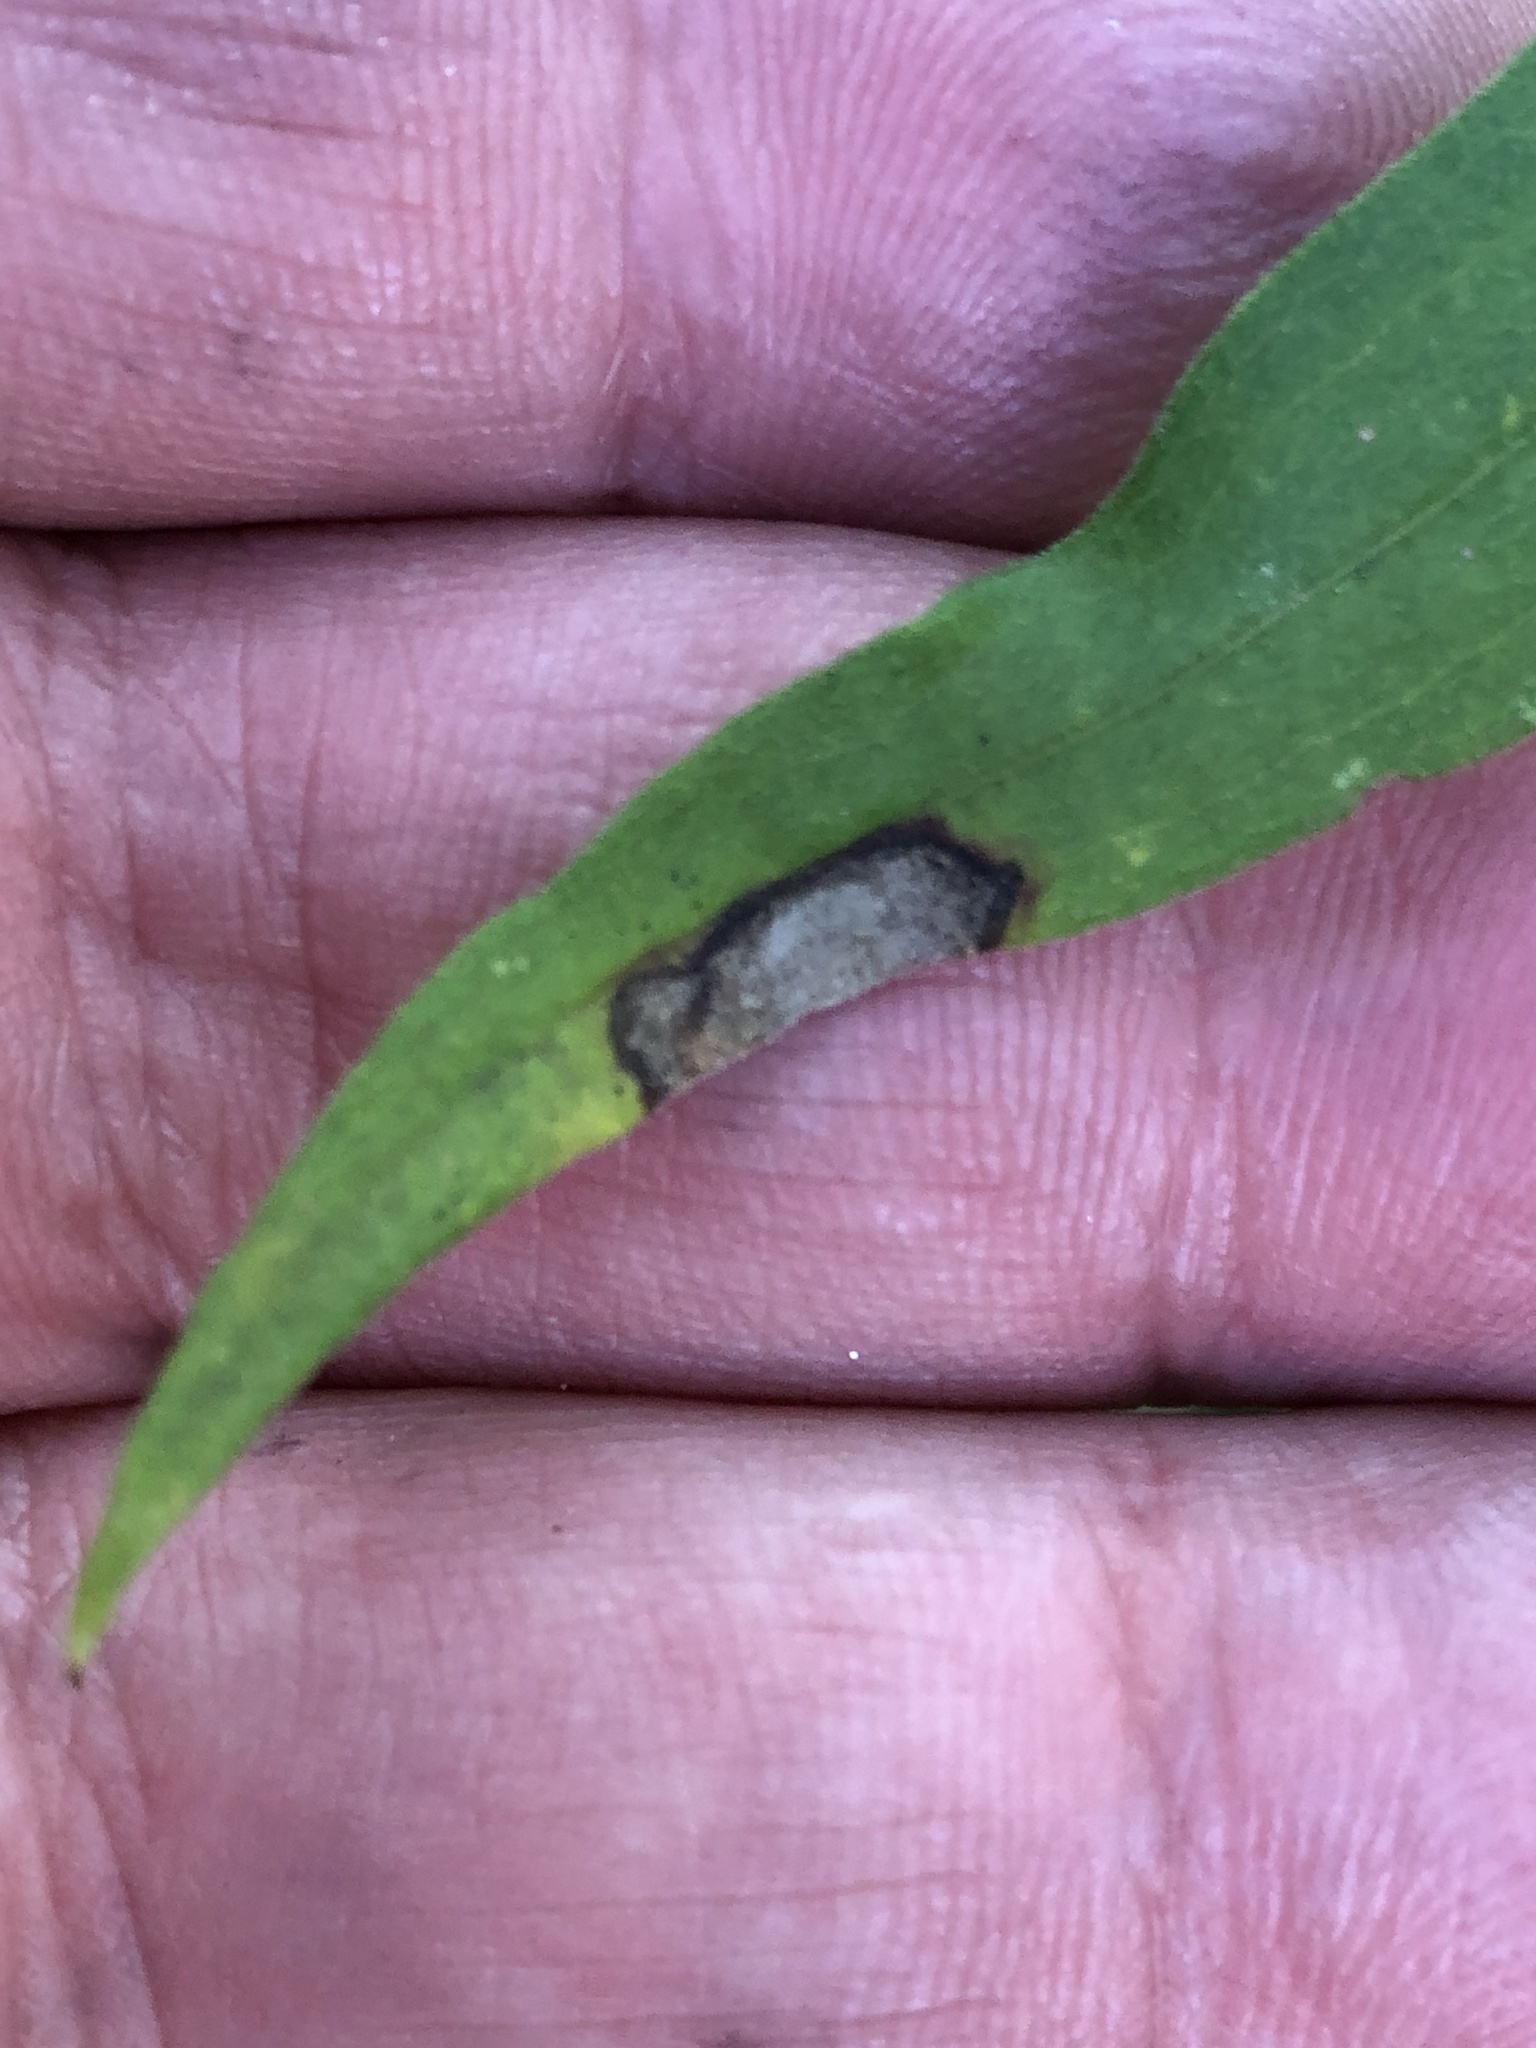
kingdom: Animalia
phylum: Arthropoda
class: Insecta
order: Diptera
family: Cecidomyiidae
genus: Asteromyia
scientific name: Asteromyia carbonifera
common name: Carbonifera goldenrod gall midge
